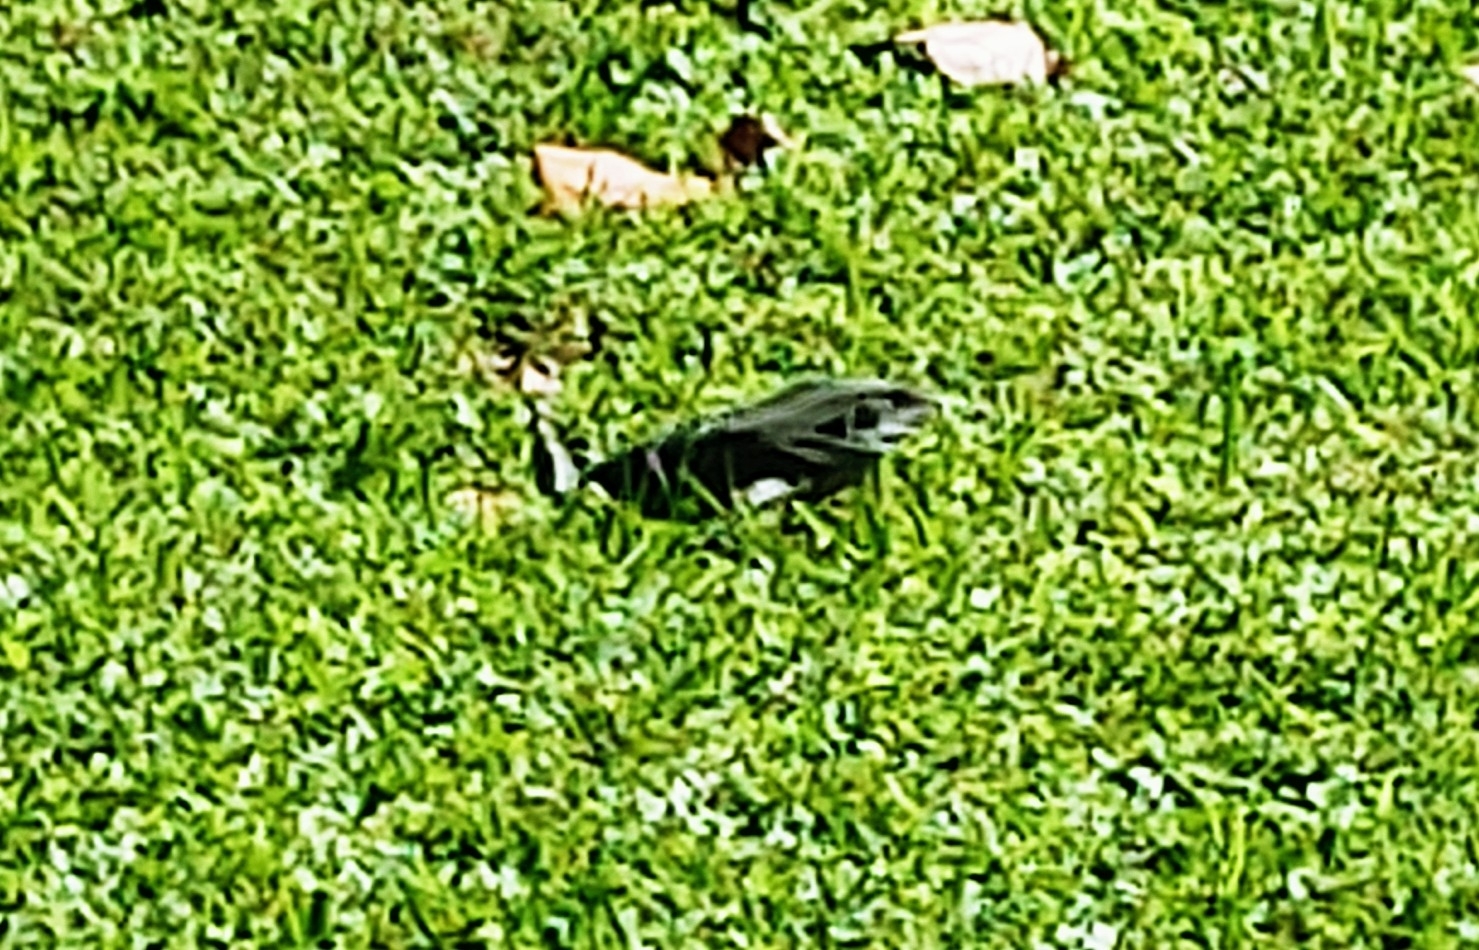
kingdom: Animalia
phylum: Chordata
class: Squamata
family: Iguanidae
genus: Ctenosaura
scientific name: Ctenosaura similis
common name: Black spiny-tailed iguana
